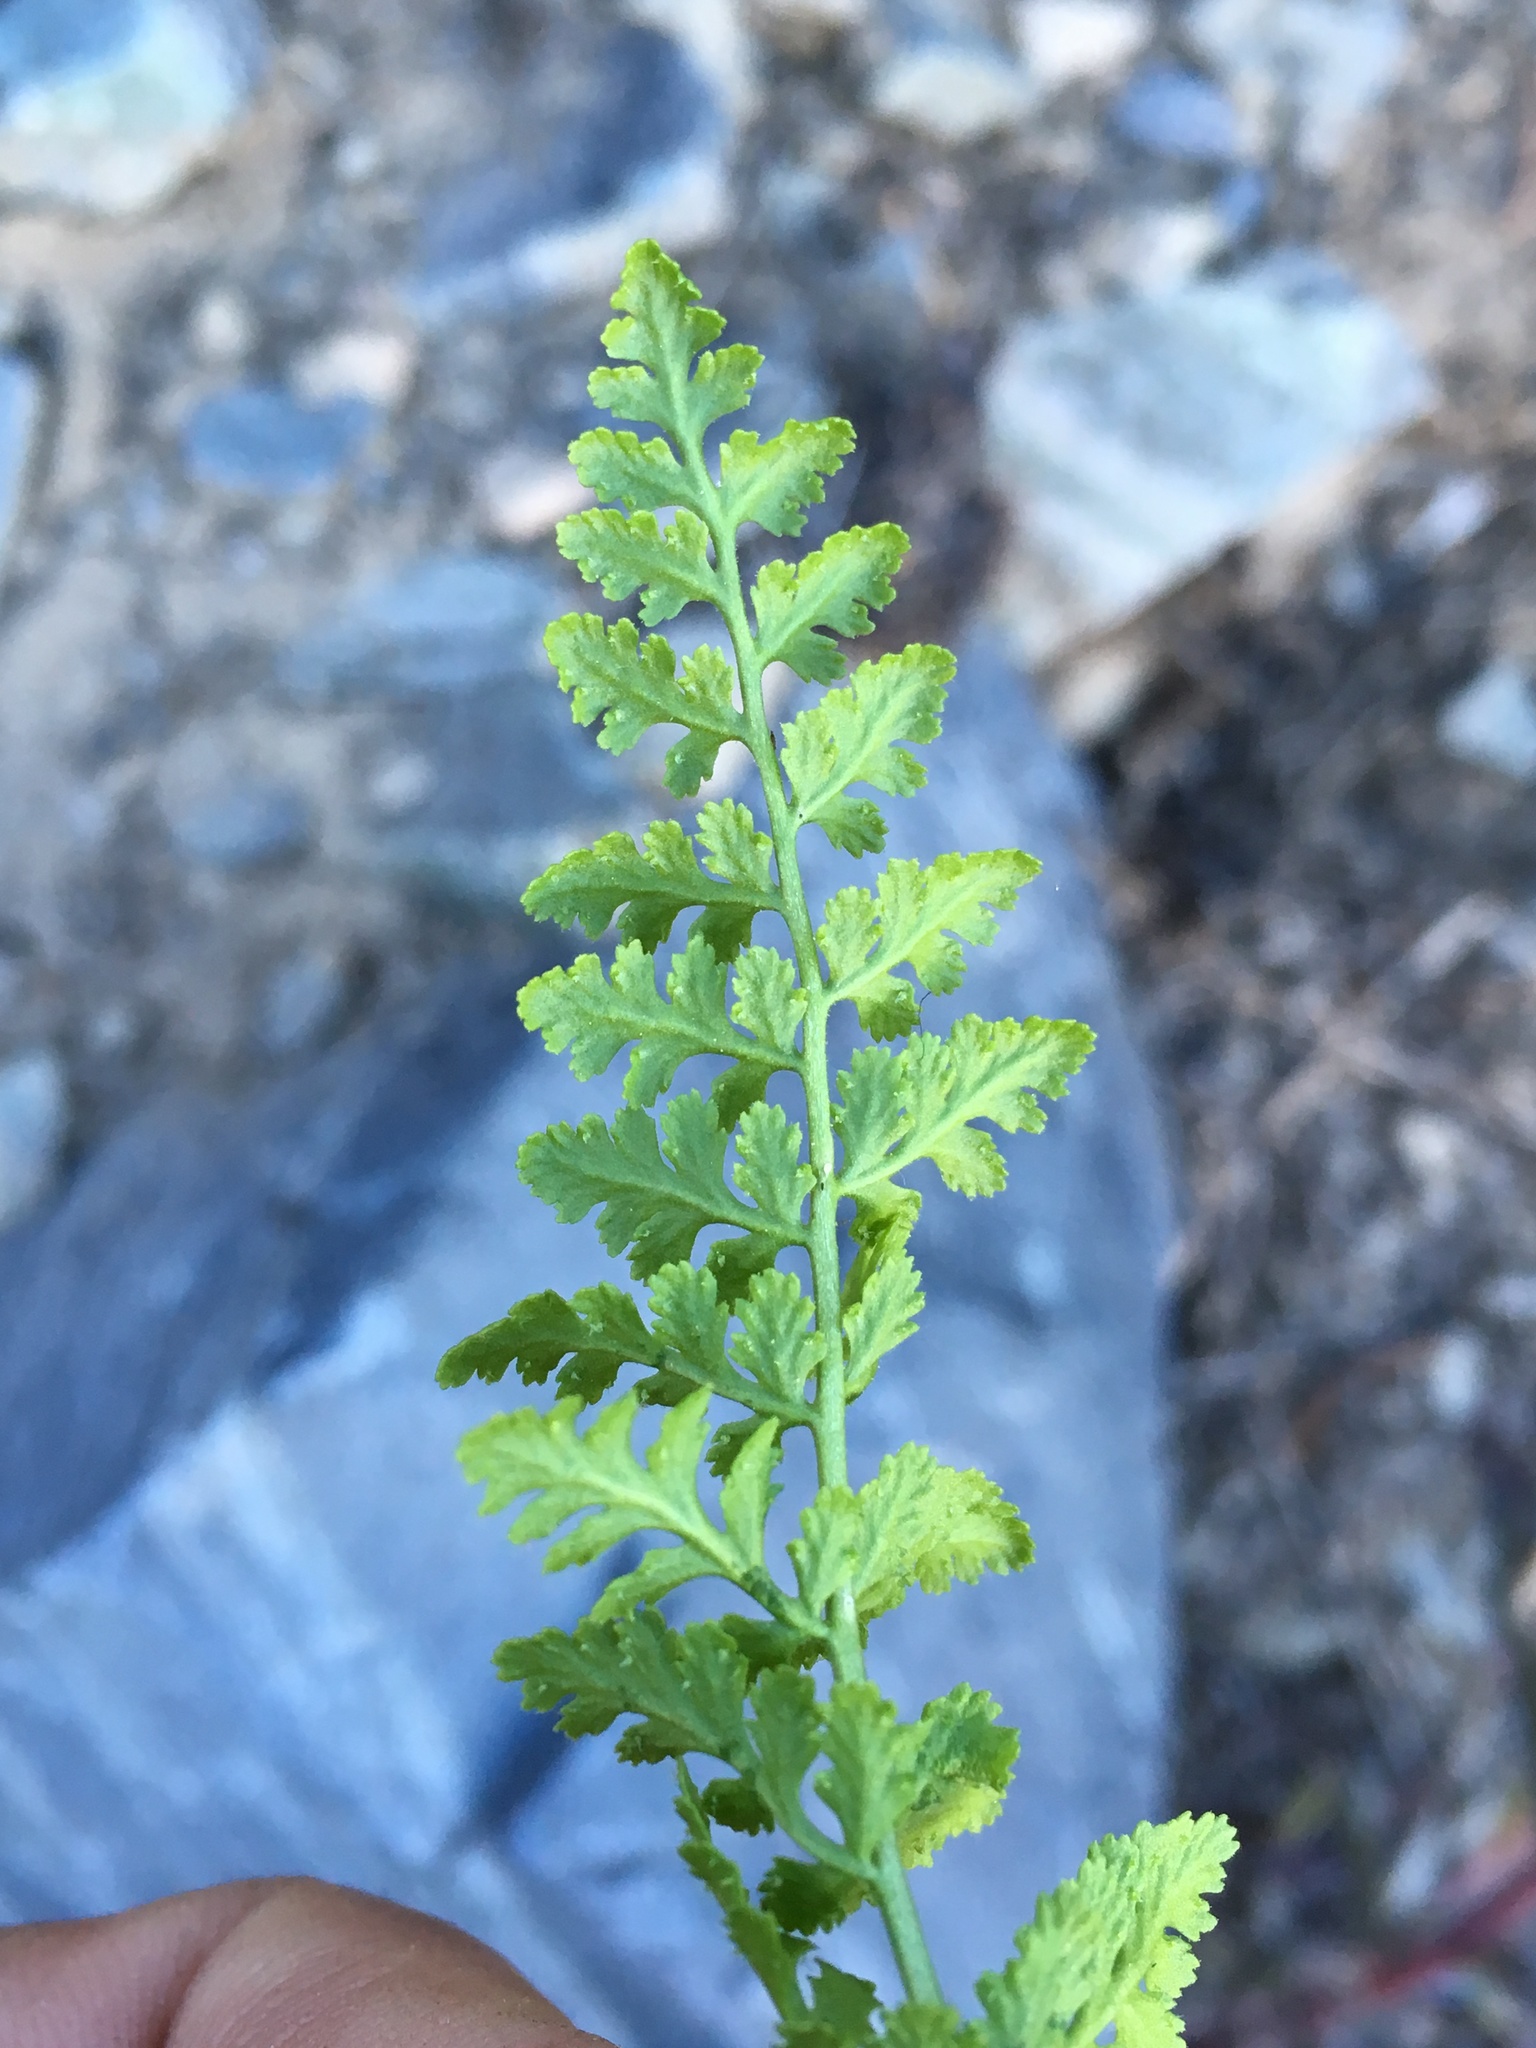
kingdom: Plantae
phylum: Tracheophyta
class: Polypodiopsida
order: Polypodiales
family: Cystopteridaceae
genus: Cystopteris
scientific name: Cystopteris fragilis
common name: Brittle bladder fern
